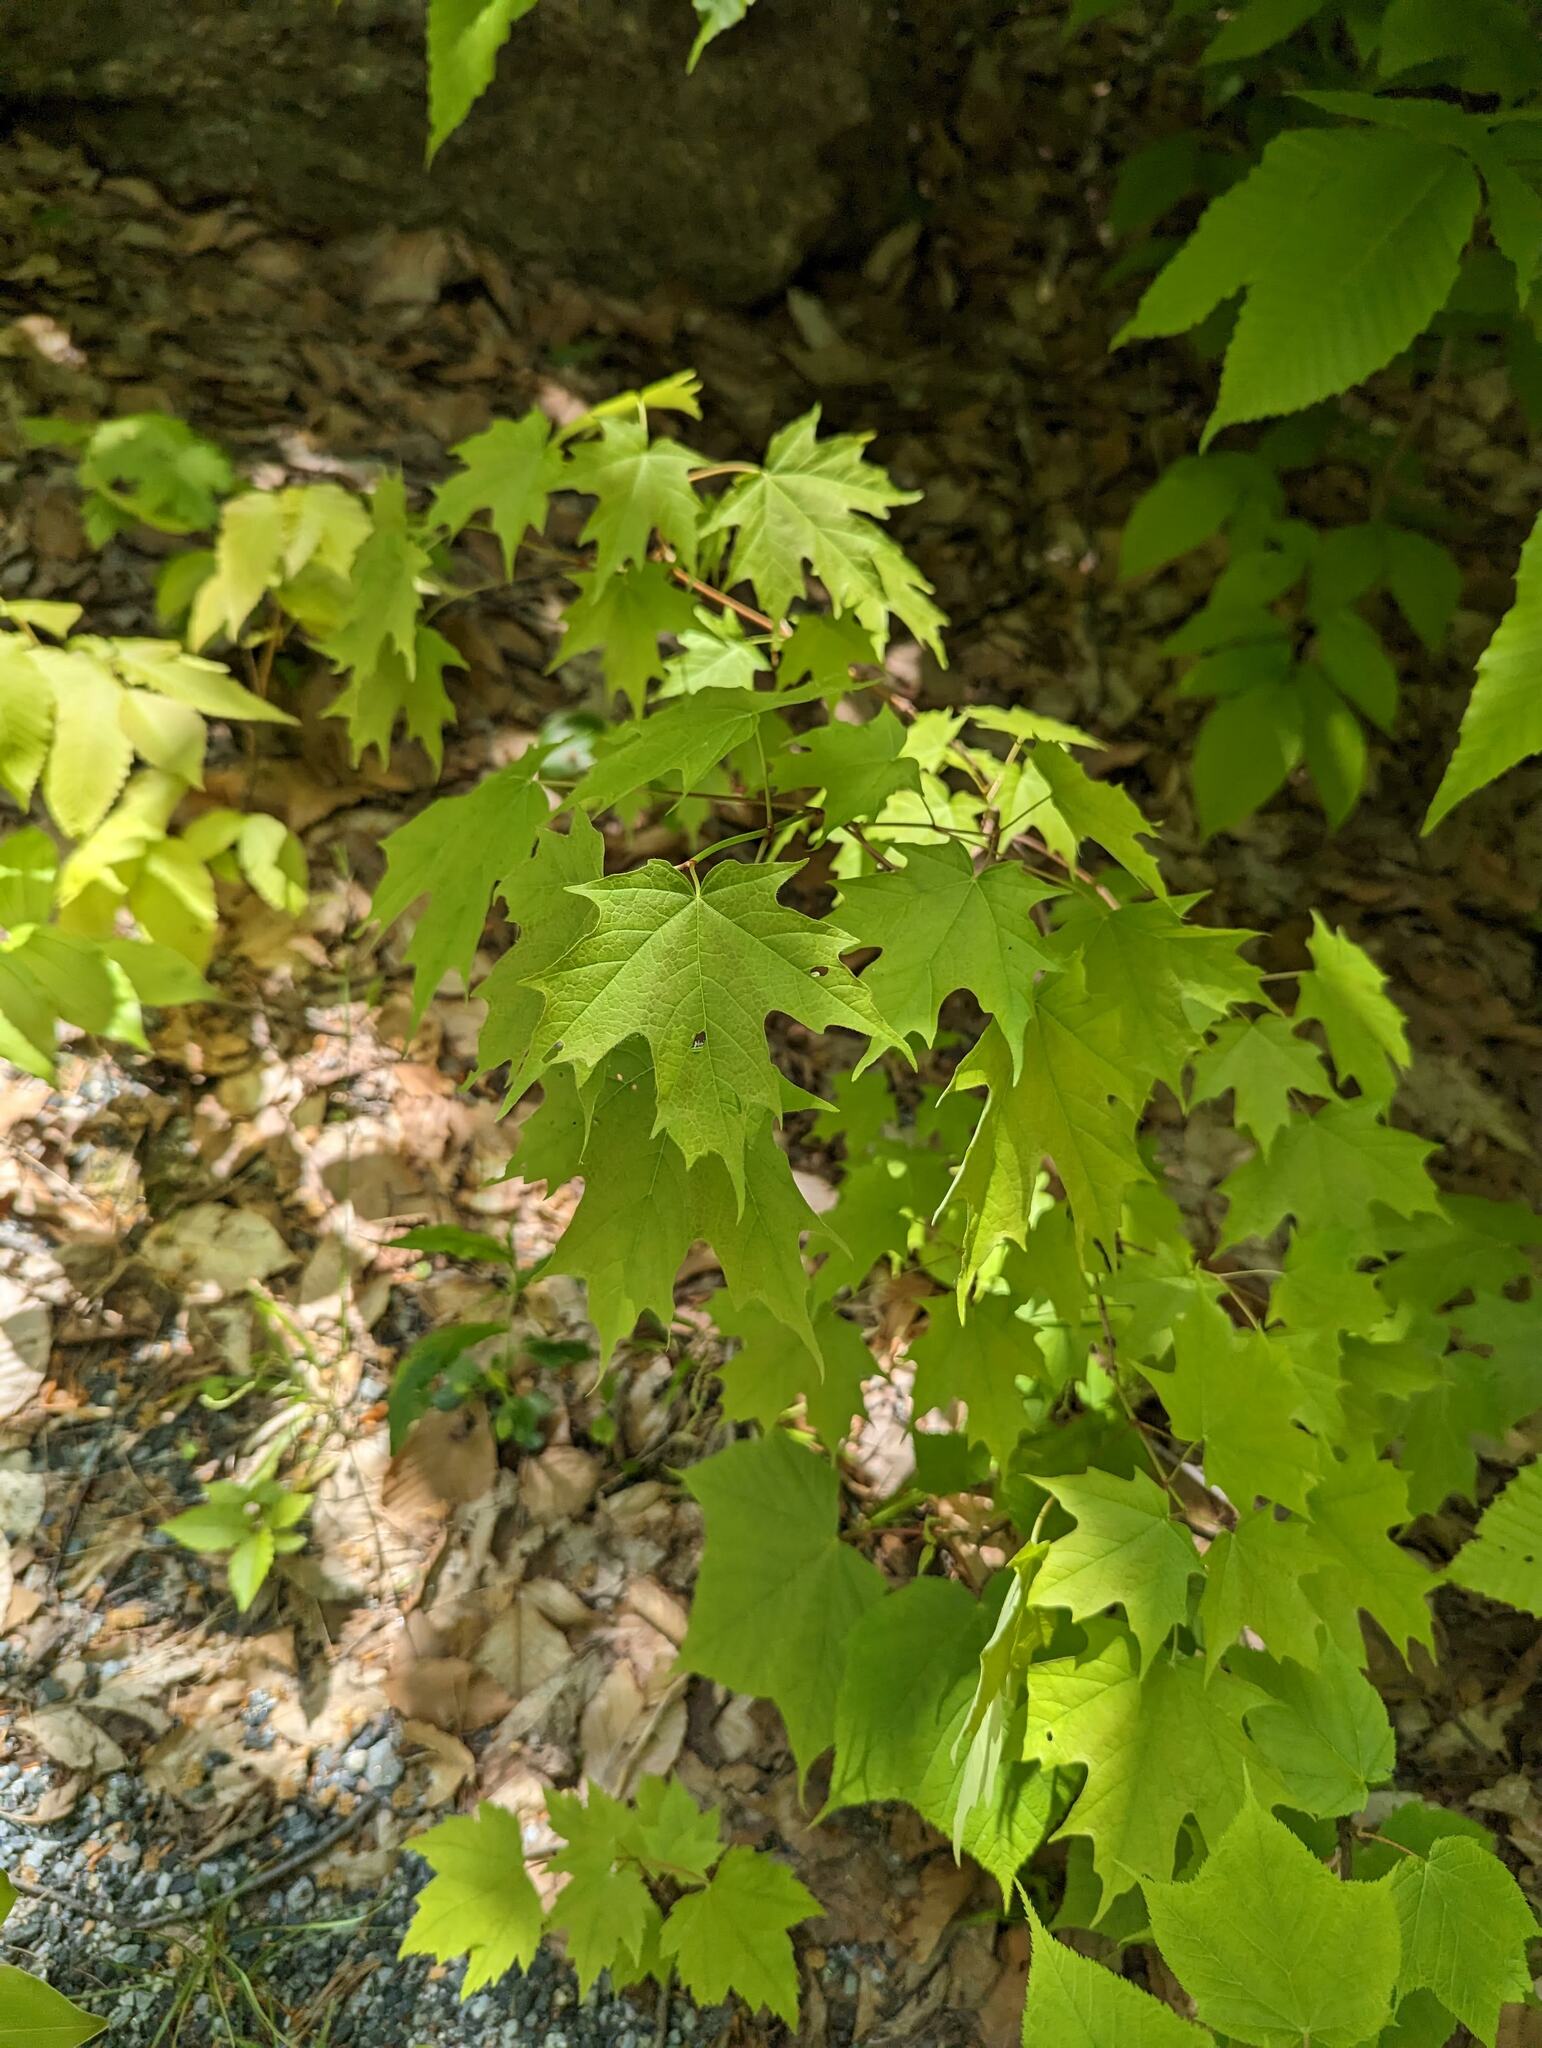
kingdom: Plantae
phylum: Tracheophyta
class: Magnoliopsida
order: Sapindales
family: Sapindaceae
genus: Acer
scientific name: Acer saccharum
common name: Sugar maple
